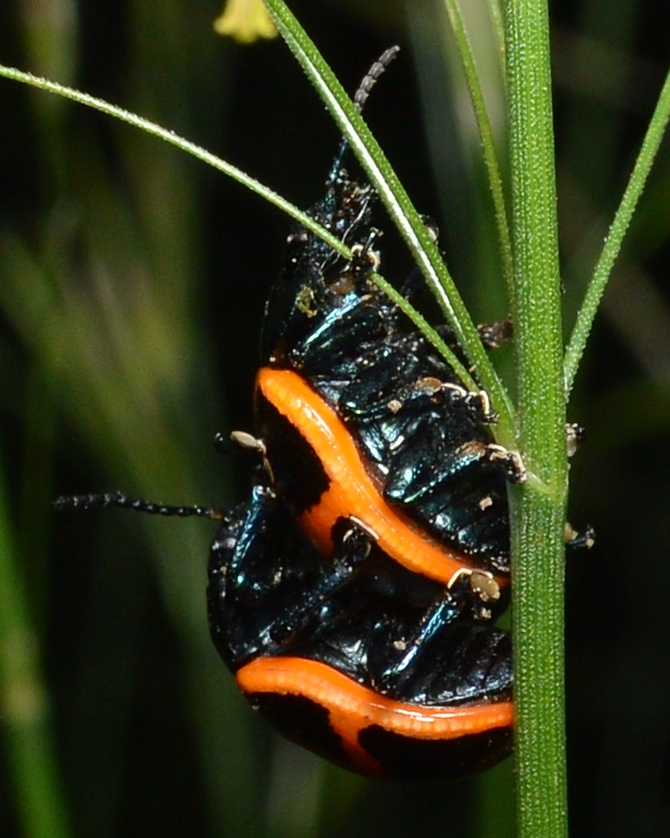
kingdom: Animalia
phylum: Arthropoda
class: Insecta
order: Coleoptera
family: Chrysomelidae
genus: Labidomera
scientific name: Labidomera clivicollis
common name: Swamp milkweed leaf beetle
